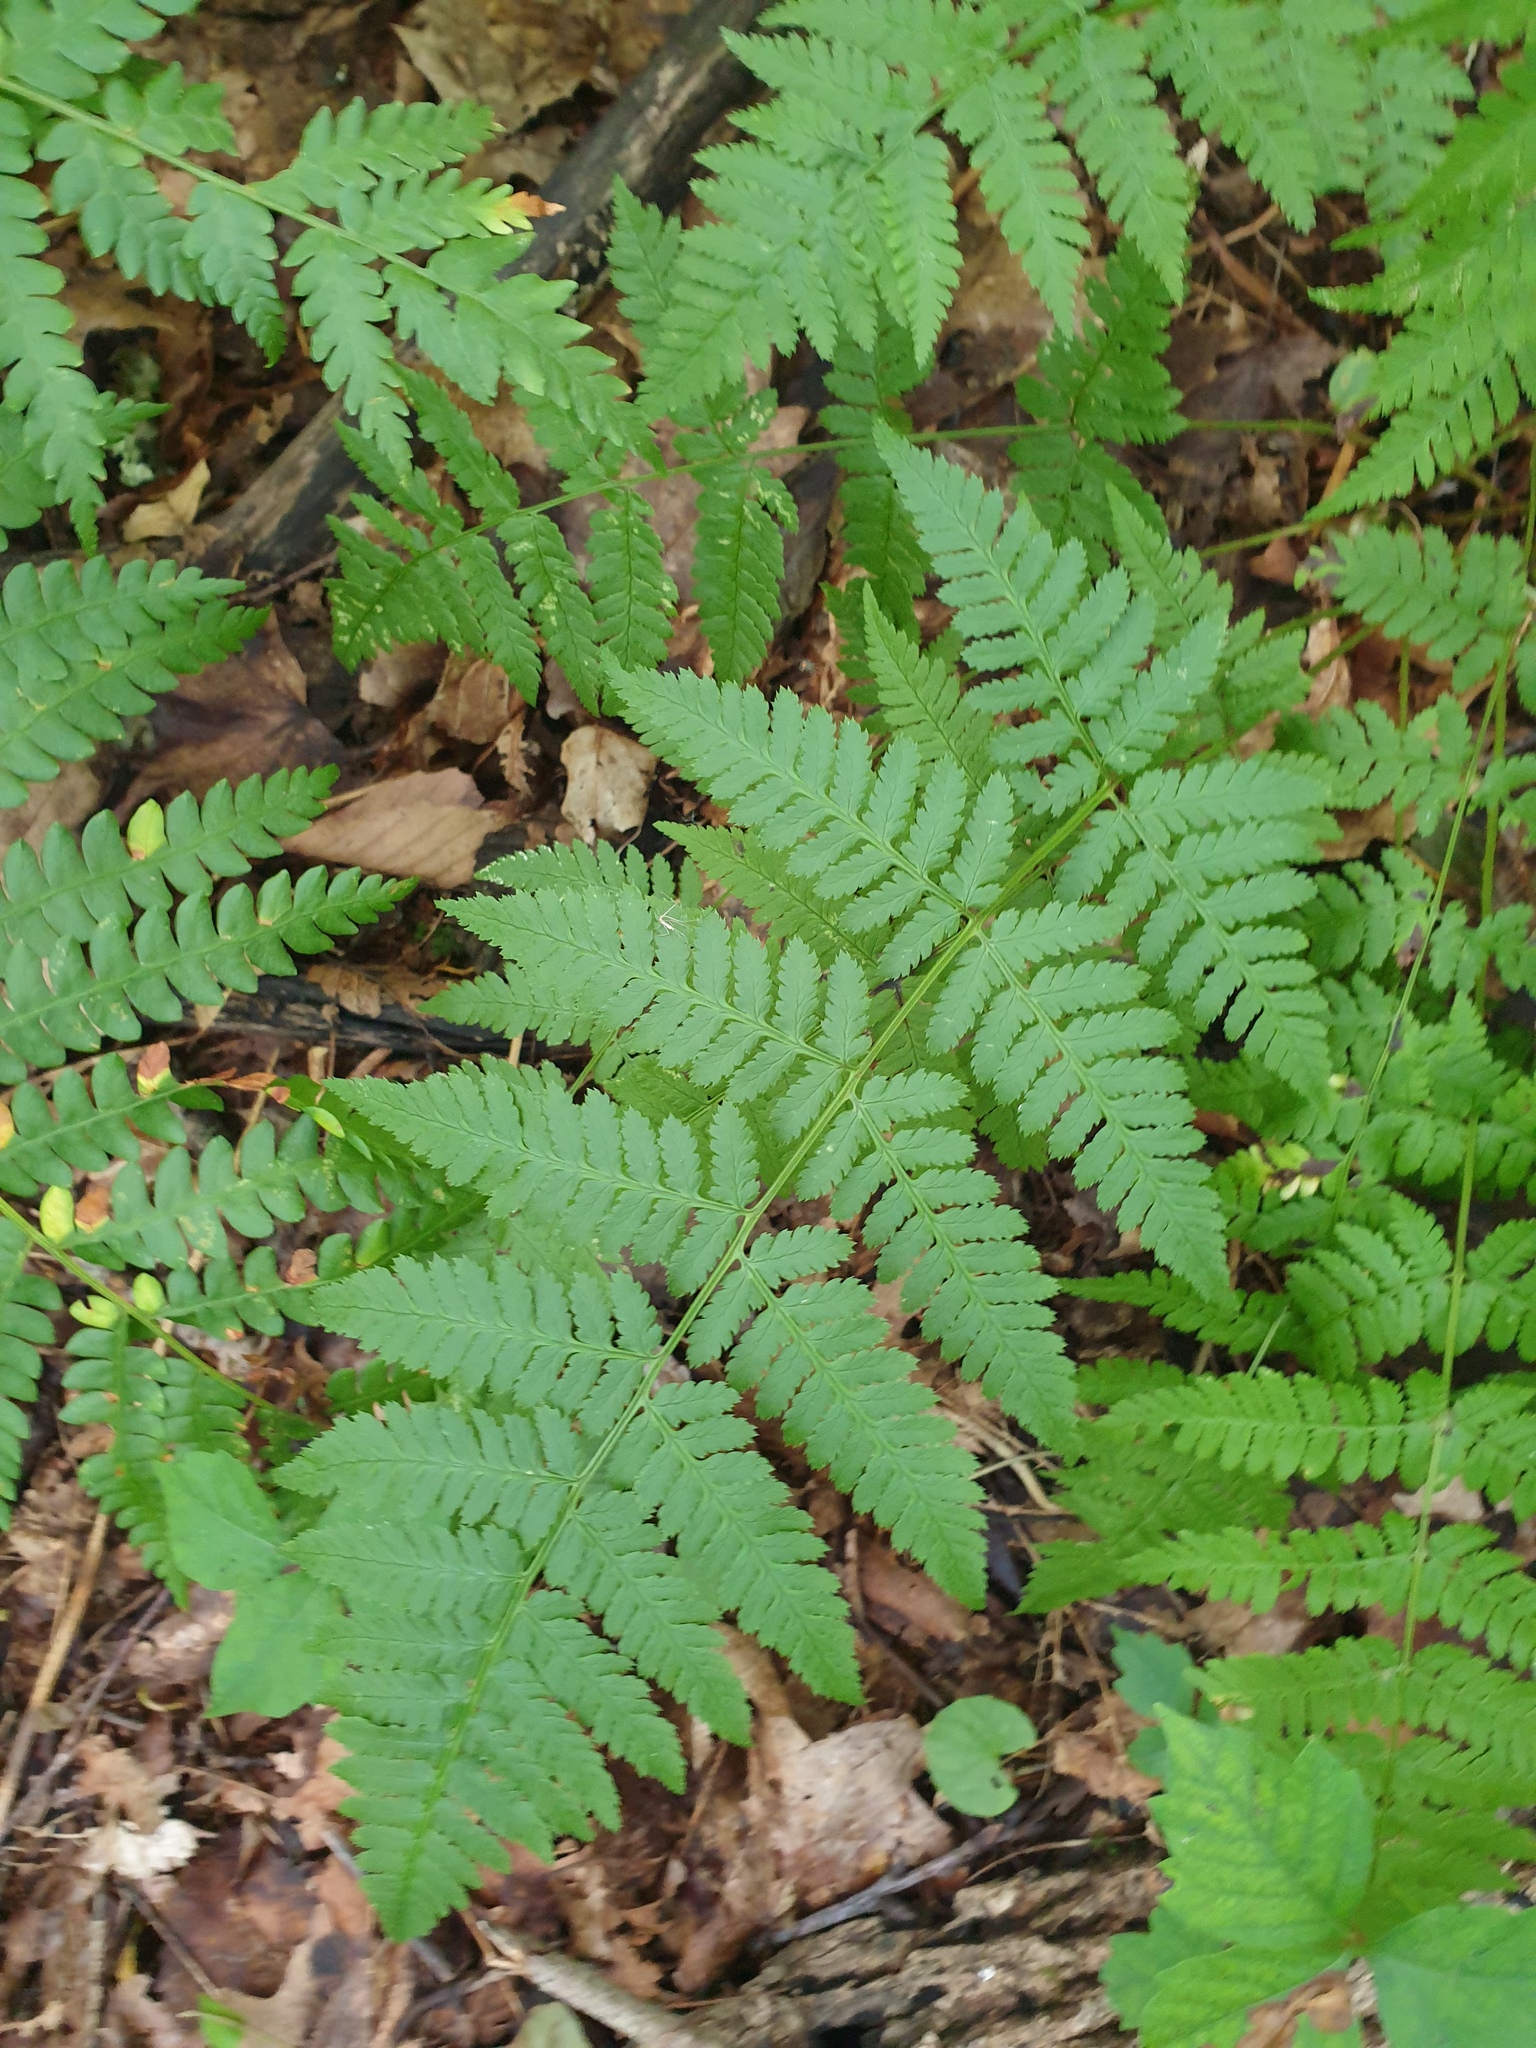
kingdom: Plantae
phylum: Tracheophyta
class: Polypodiopsida
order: Polypodiales
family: Dryopteridaceae
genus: Dryopteris
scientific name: Dryopteris carthusiana
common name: Narrow buckler-fern
